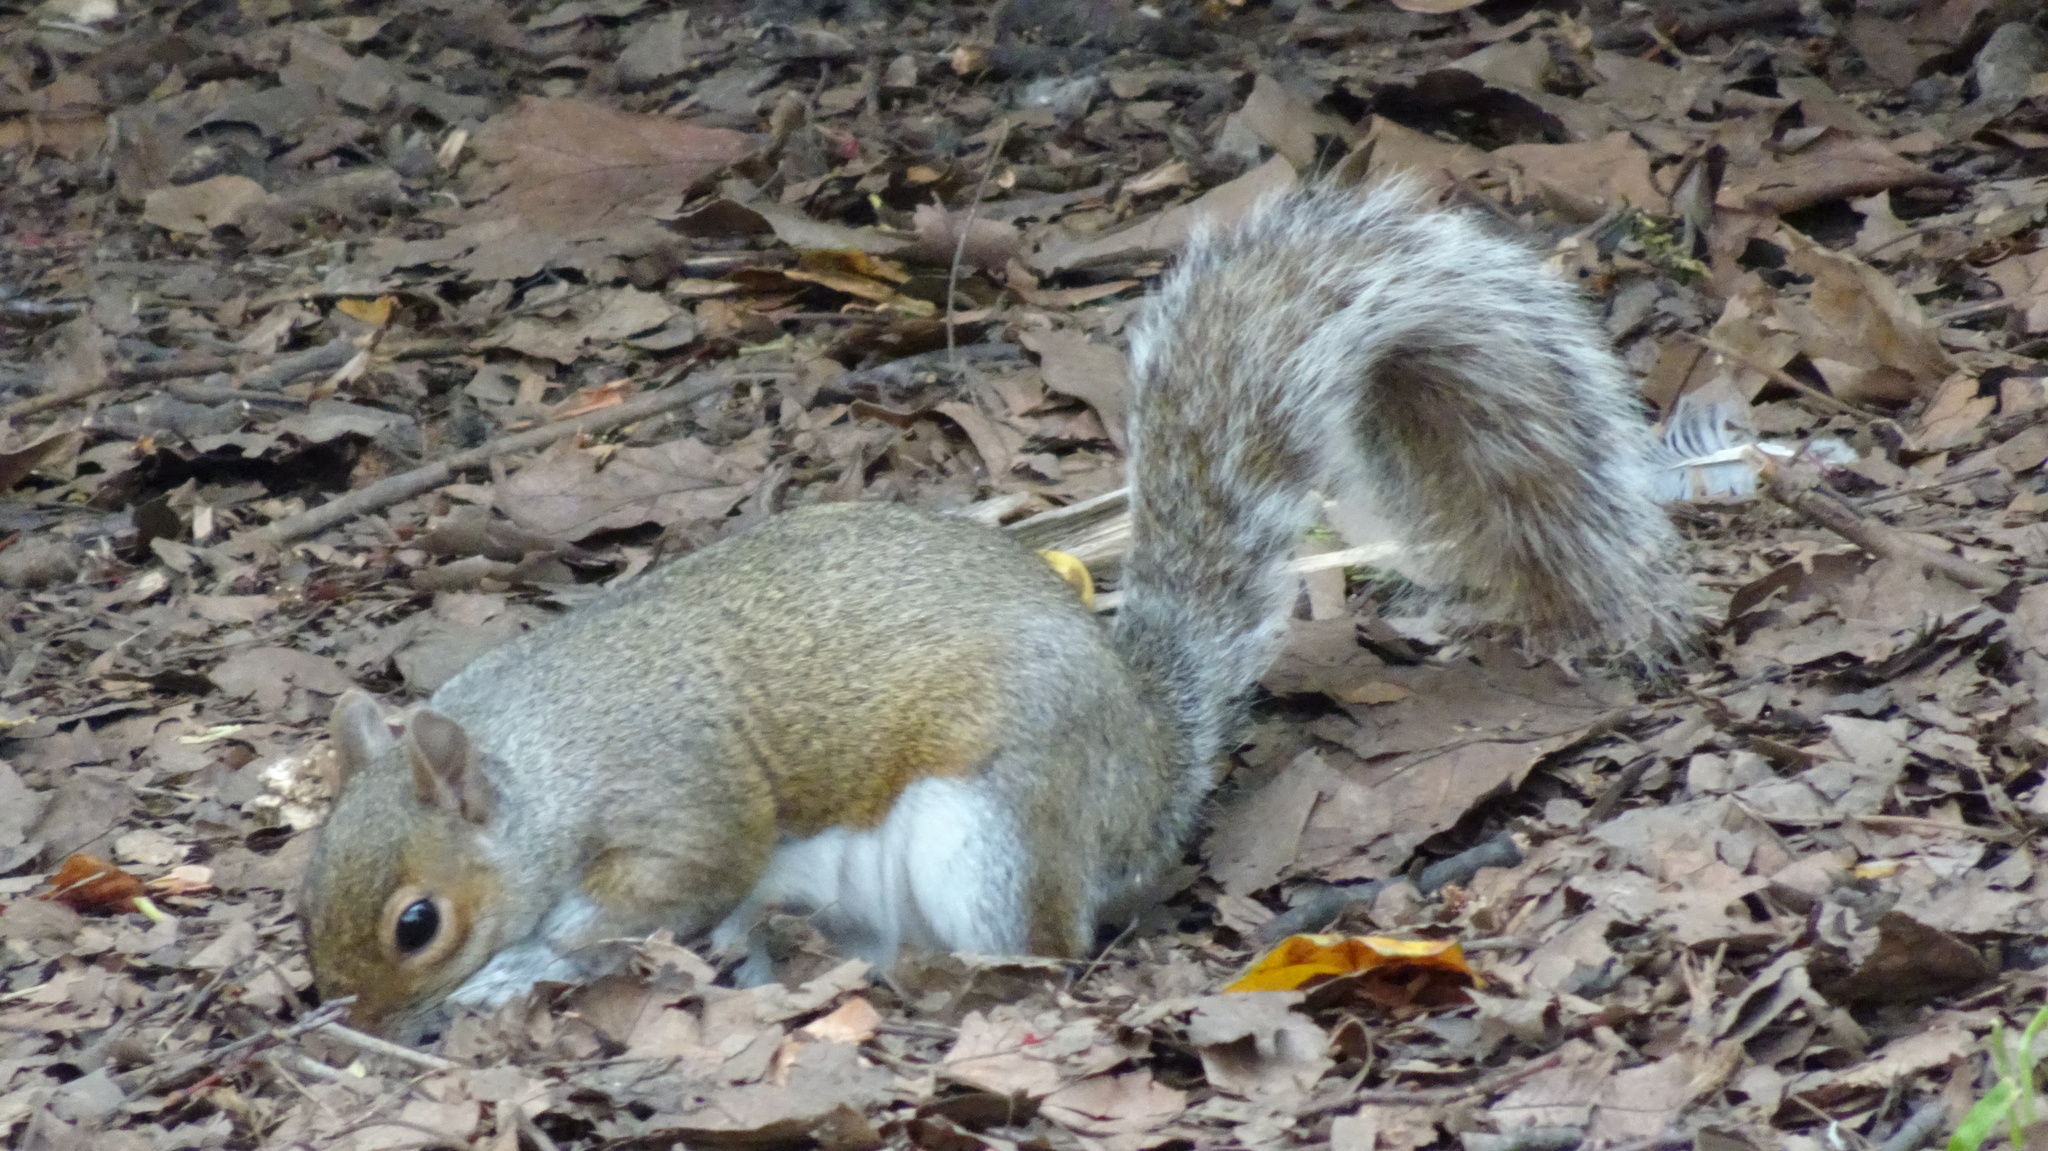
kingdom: Animalia
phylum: Chordata
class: Mammalia
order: Rodentia
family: Sciuridae
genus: Sciurus
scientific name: Sciurus carolinensis
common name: Eastern gray squirrel
